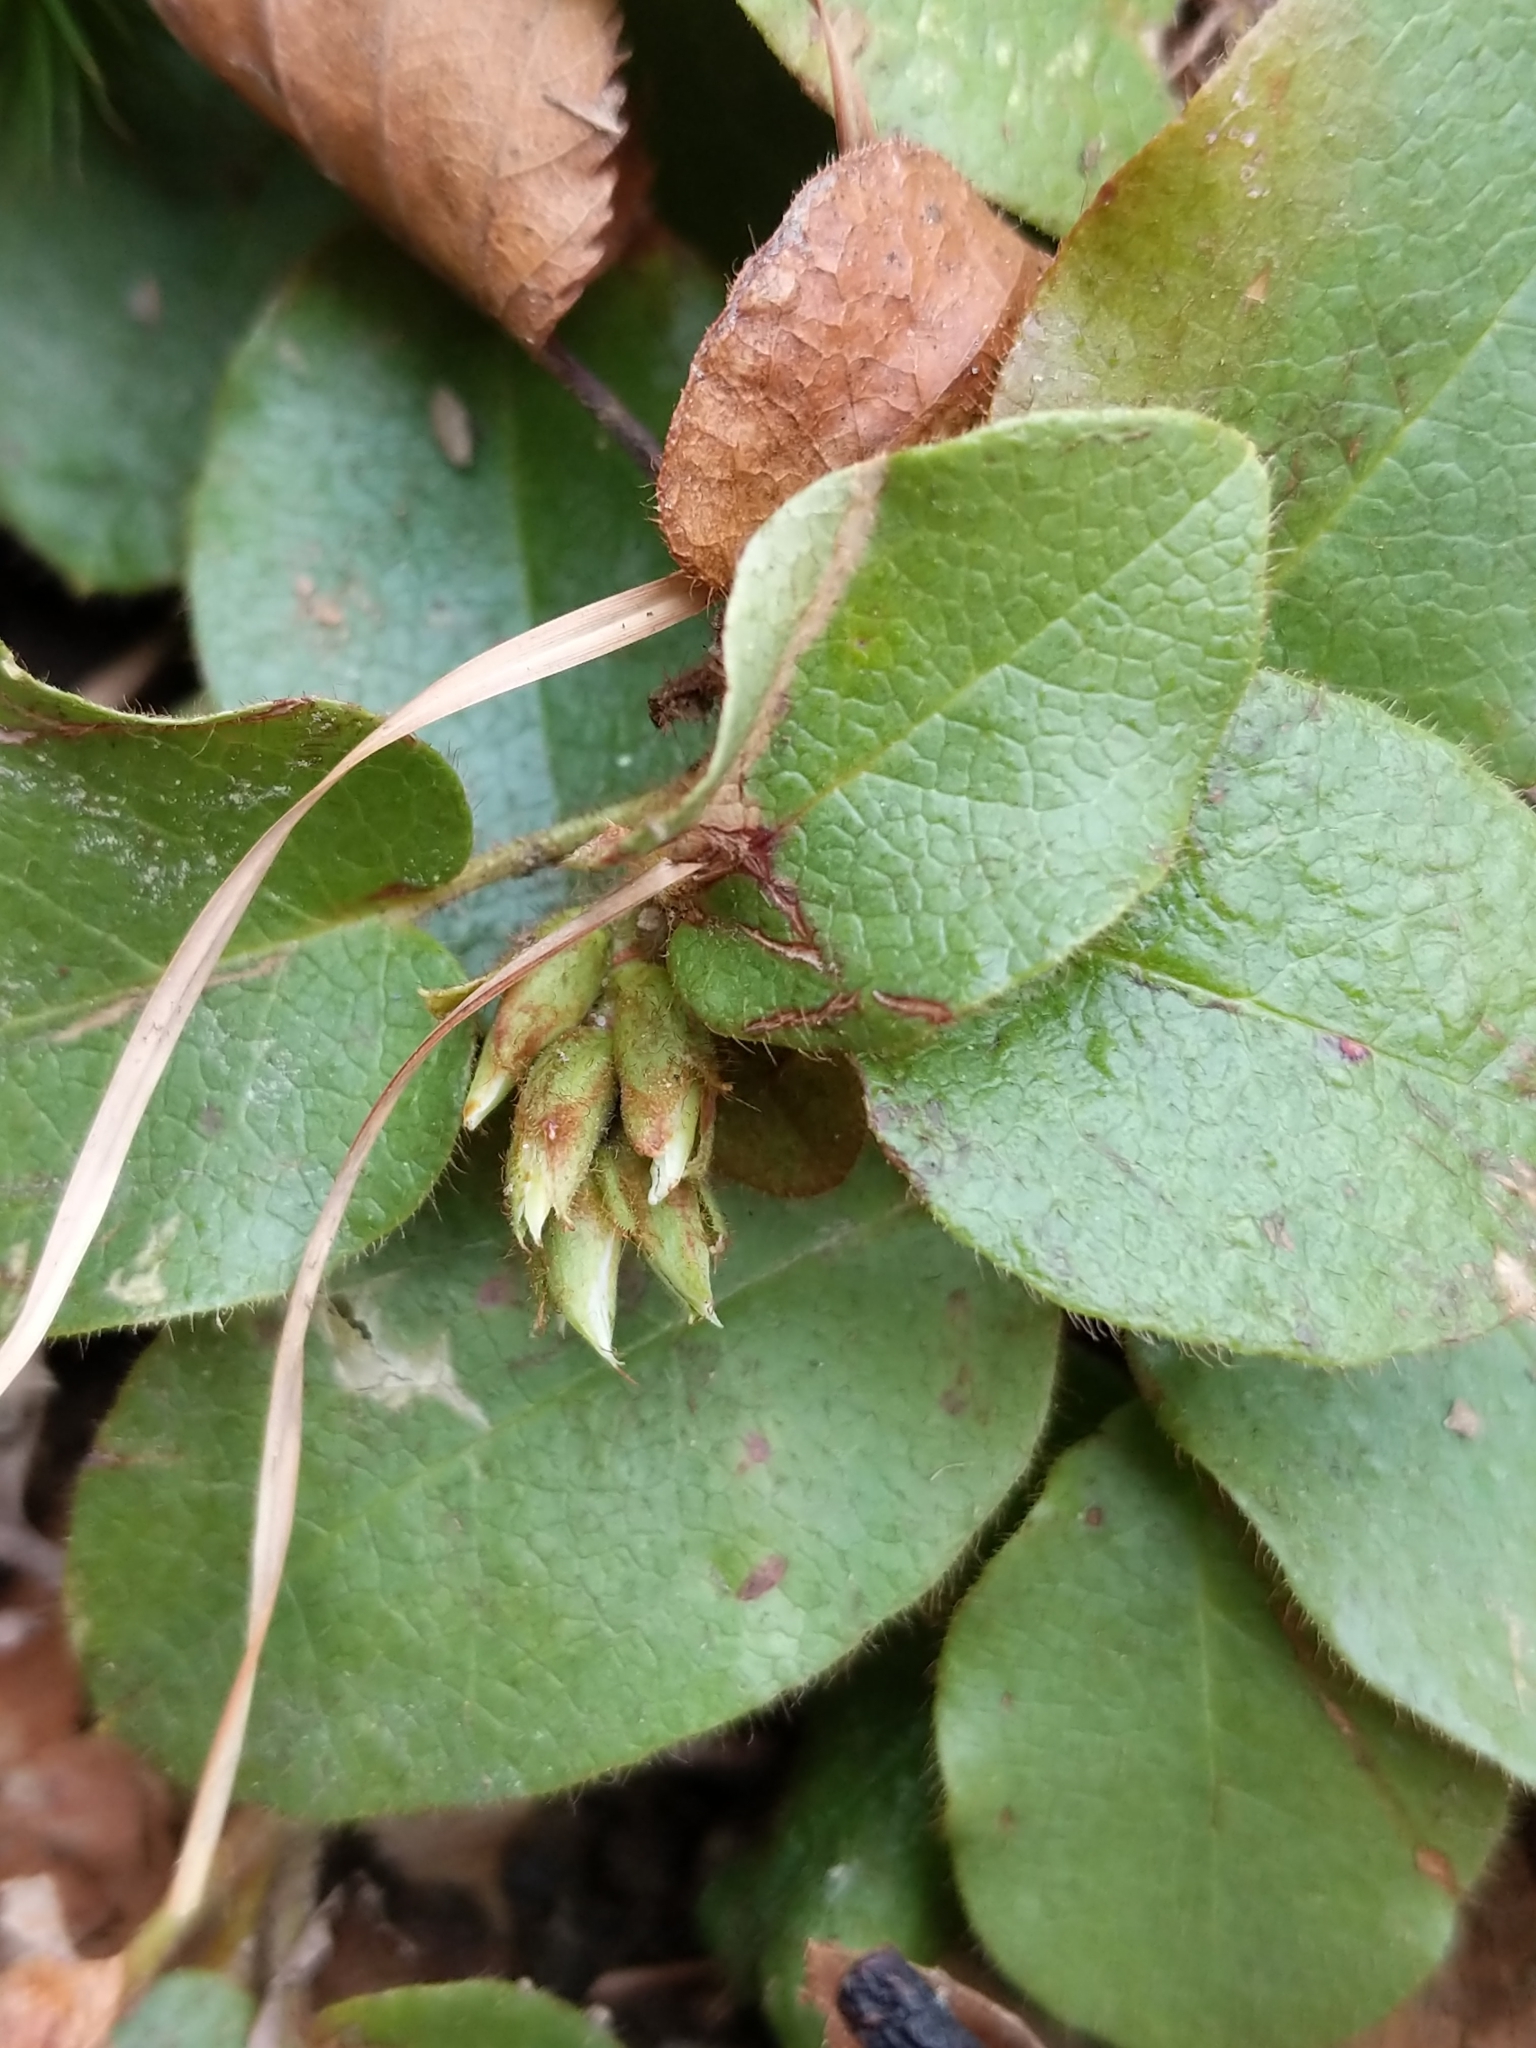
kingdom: Plantae
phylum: Tracheophyta
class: Magnoliopsida
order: Ericales
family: Ericaceae
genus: Epigaea
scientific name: Epigaea repens
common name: Gravelroot
